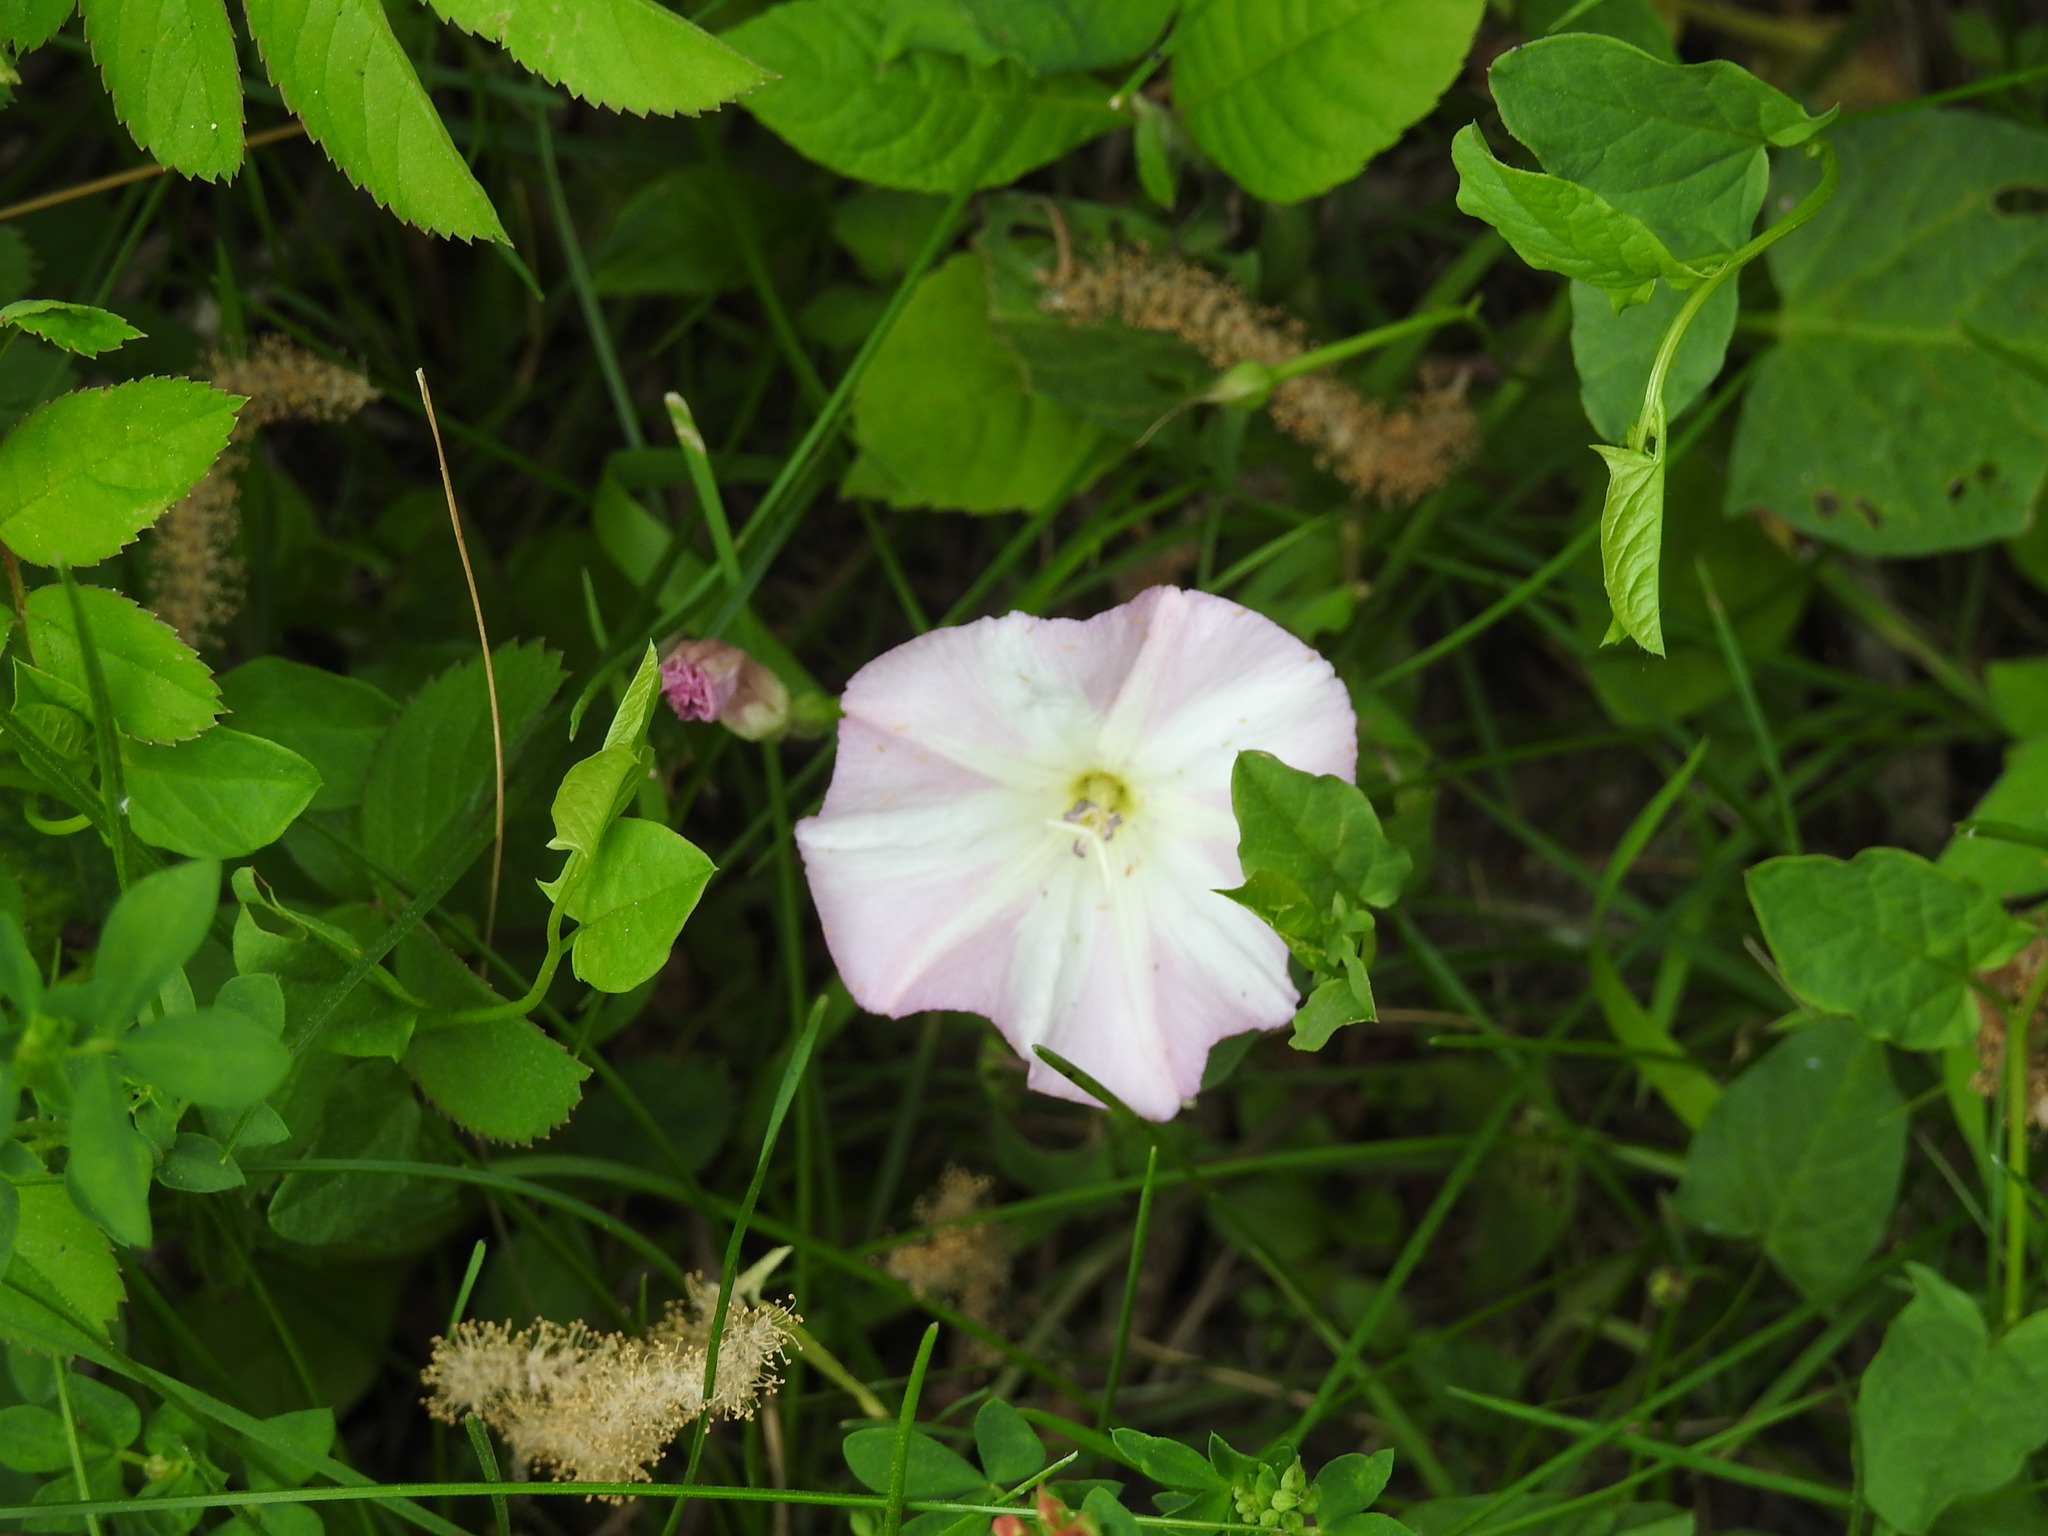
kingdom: Plantae
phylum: Tracheophyta
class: Magnoliopsida
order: Solanales
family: Convolvulaceae
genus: Convolvulus
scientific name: Convolvulus arvensis
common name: Field bindweed
